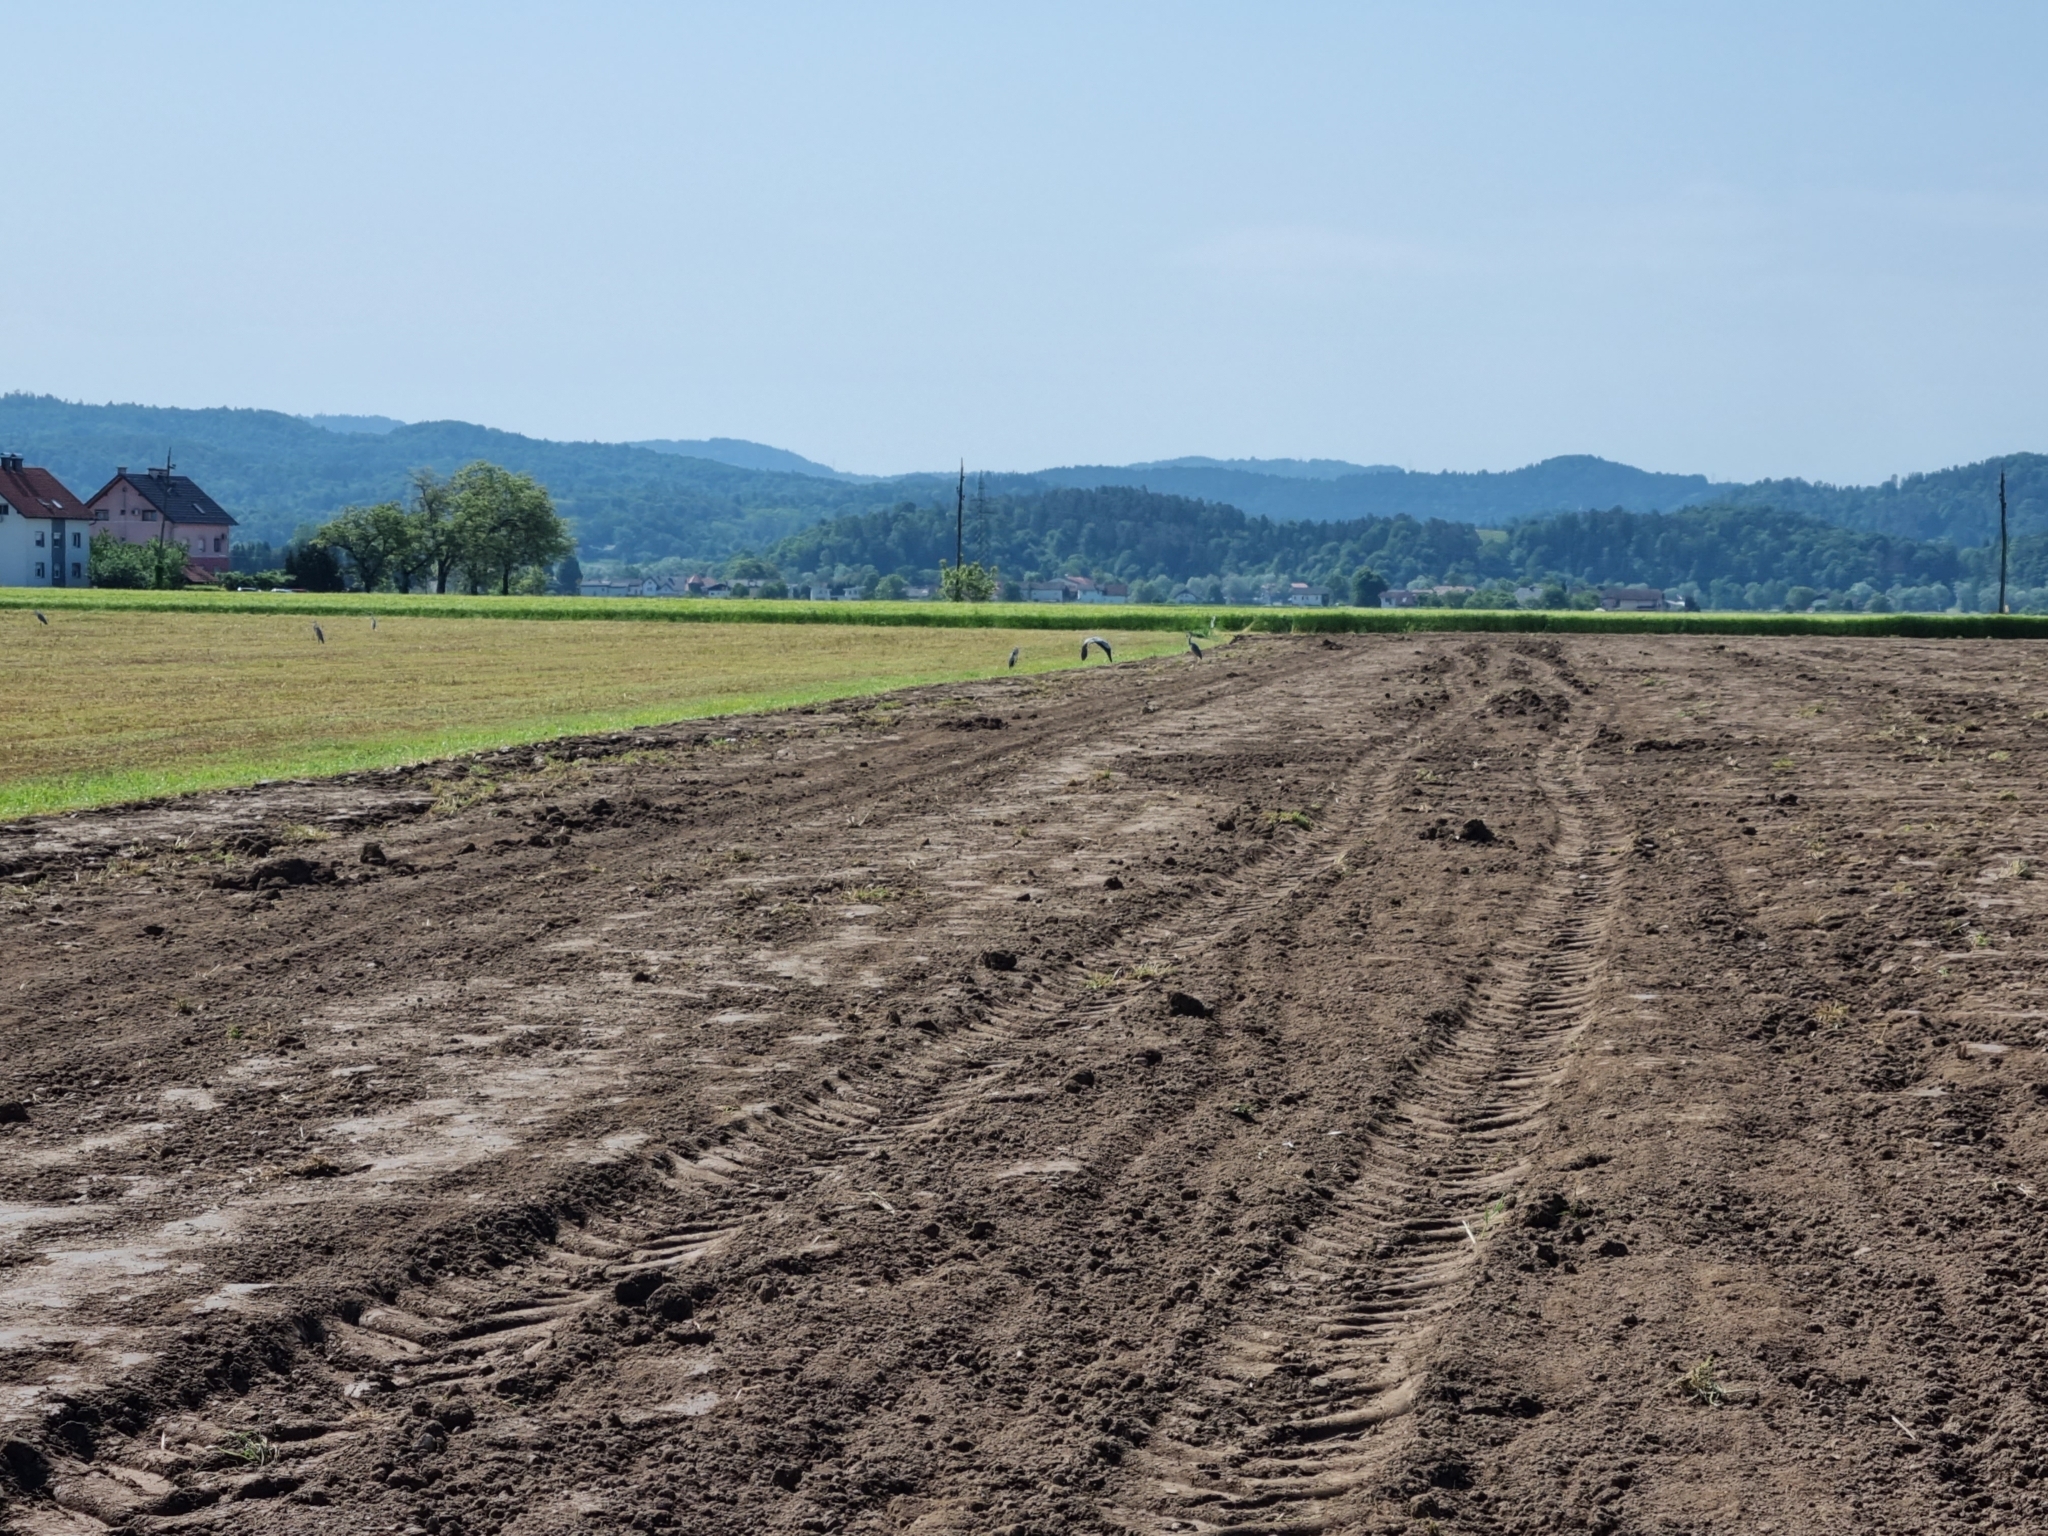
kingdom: Animalia
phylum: Chordata
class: Aves
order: Pelecaniformes
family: Ardeidae
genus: Ardea
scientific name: Ardea cinerea
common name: Grey heron
